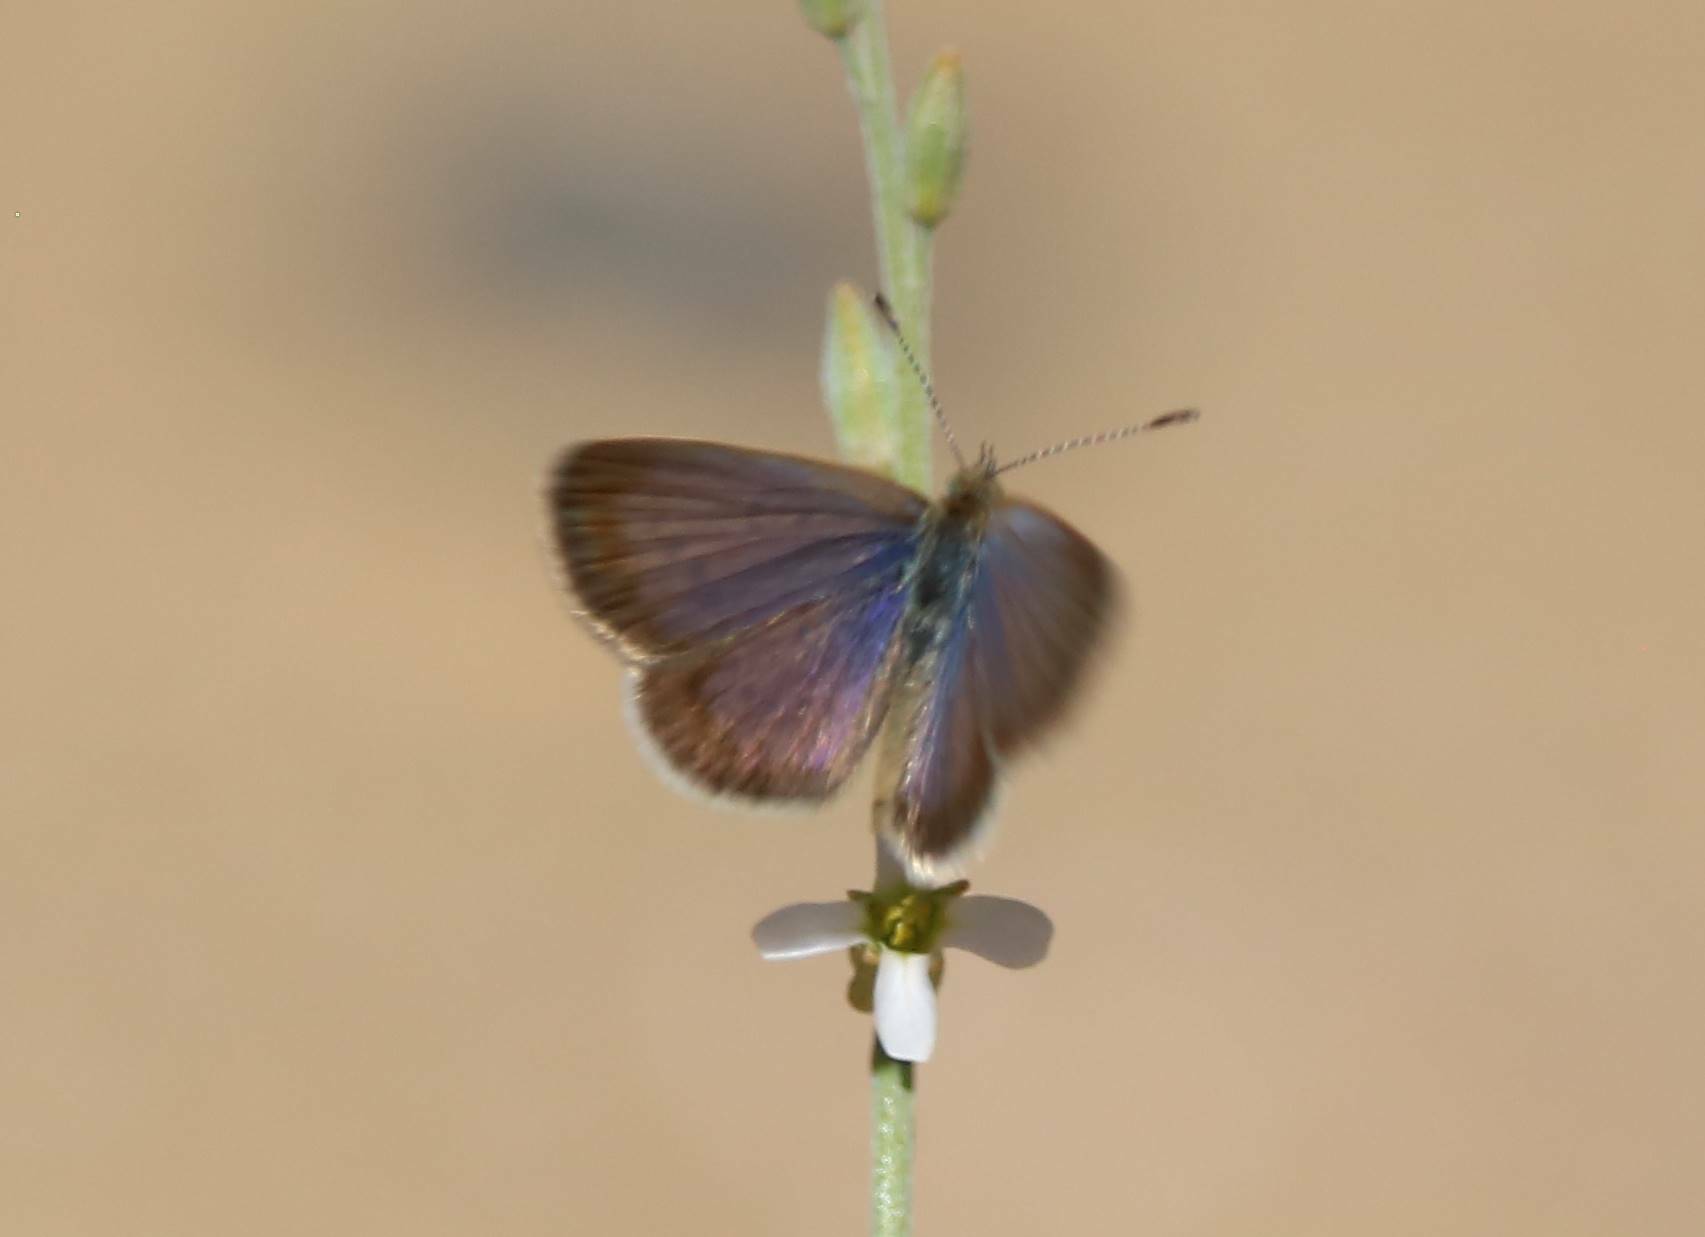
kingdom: Animalia
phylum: Arthropoda
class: Insecta
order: Lepidoptera
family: Lycaenidae
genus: Zizeeria
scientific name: Zizeeria knysna
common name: African grass blue
